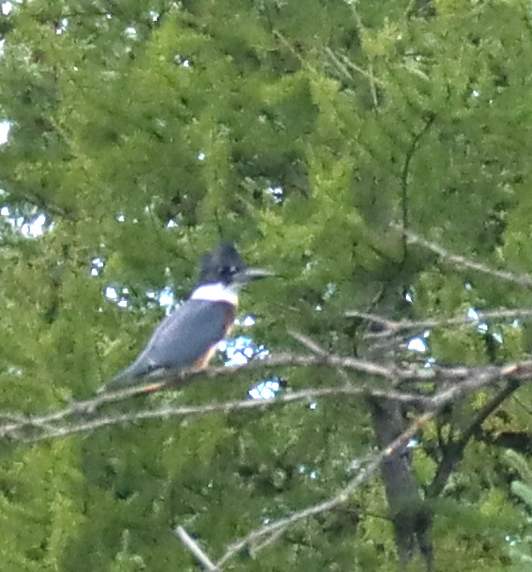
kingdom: Animalia
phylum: Chordata
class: Aves
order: Coraciiformes
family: Alcedinidae
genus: Megaceryle
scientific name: Megaceryle alcyon
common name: Belted kingfisher
